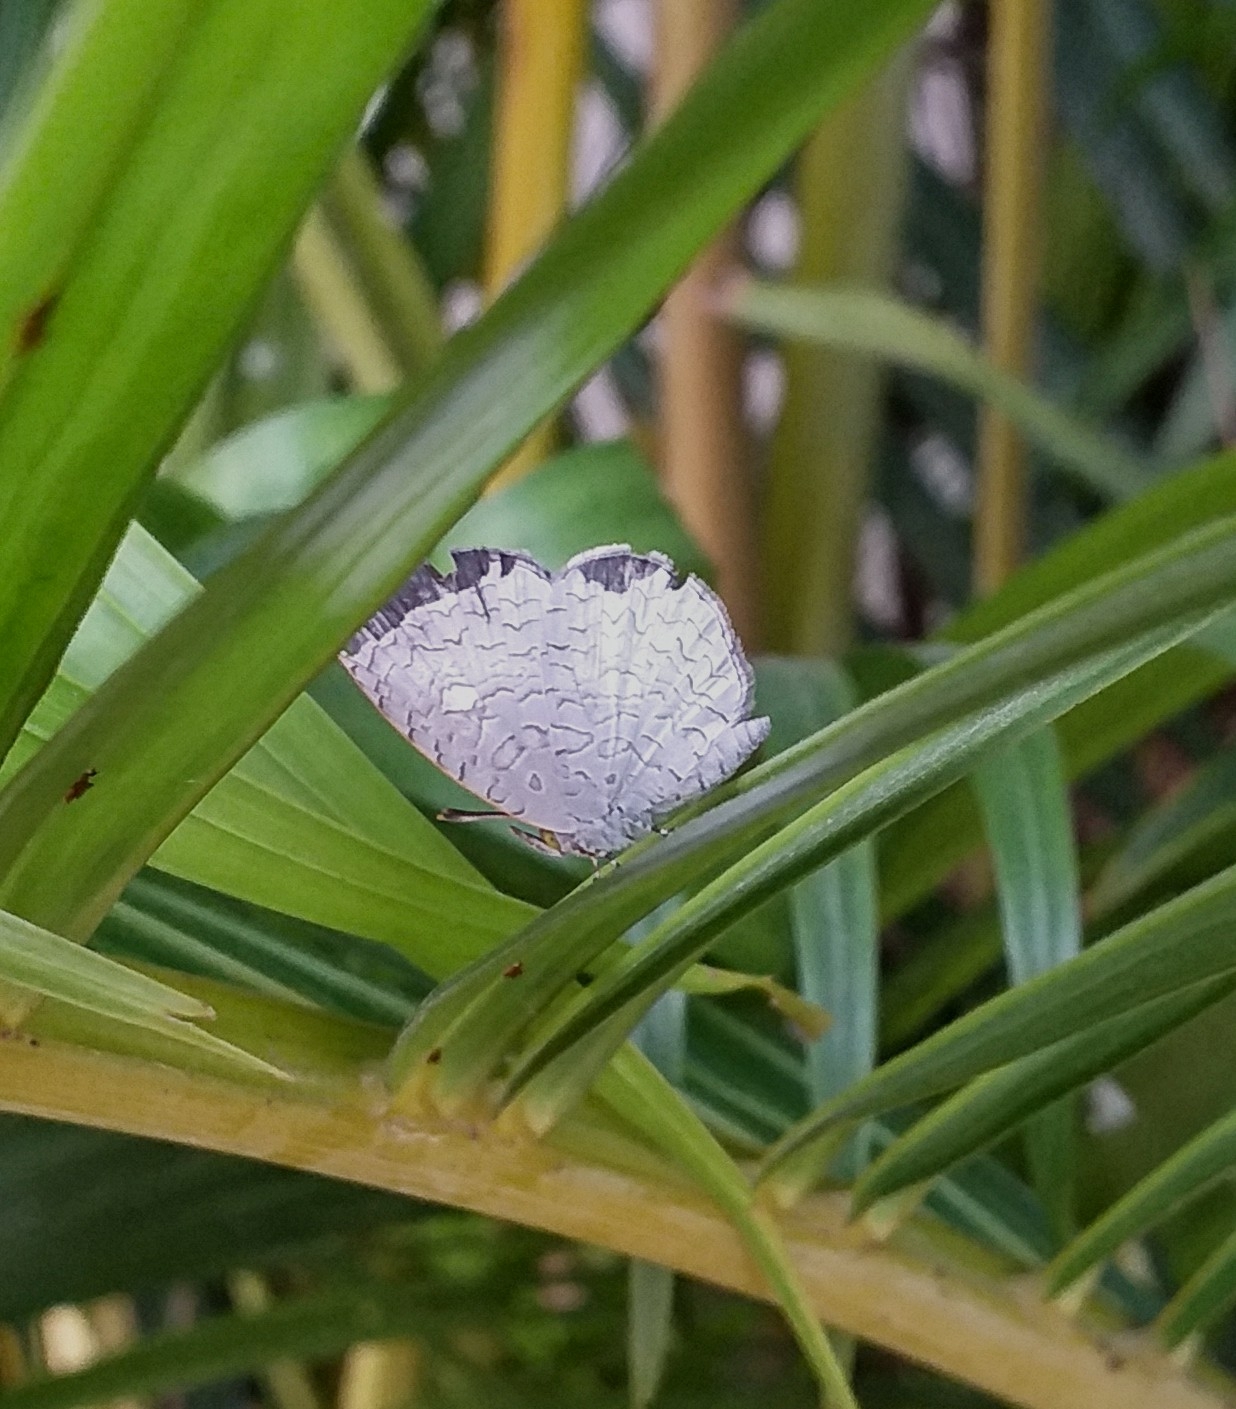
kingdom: Animalia
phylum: Arthropoda
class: Insecta
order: Lepidoptera
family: Lycaenidae
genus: Spalgis
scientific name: Spalgis epius
